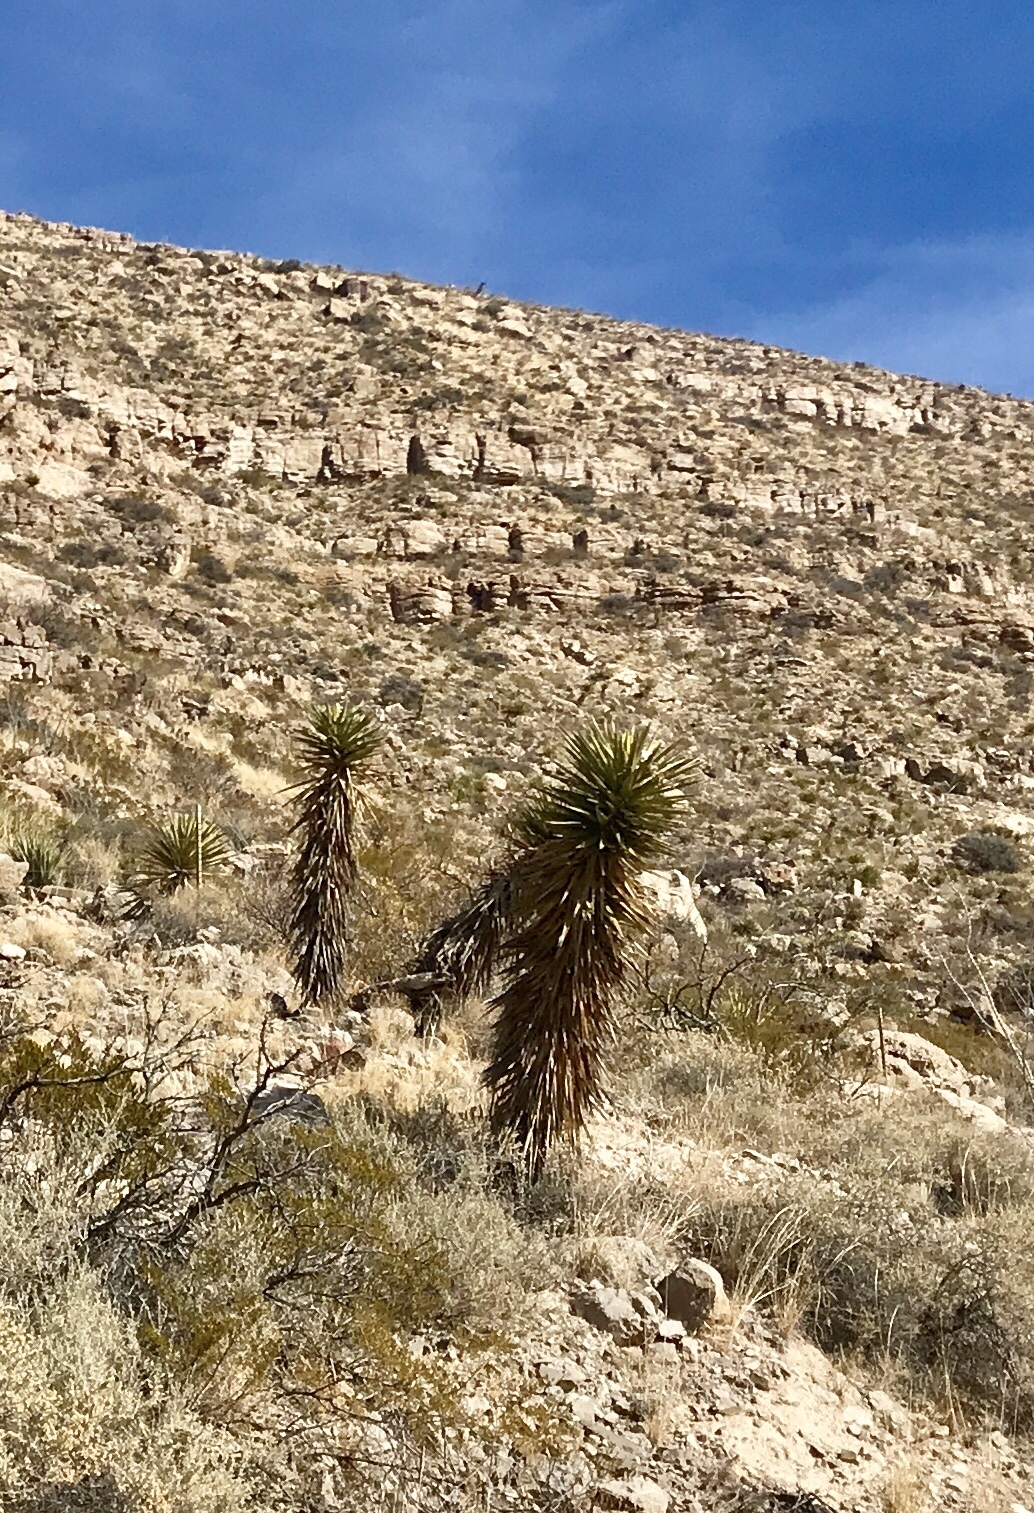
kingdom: Plantae
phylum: Tracheophyta
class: Liliopsida
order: Asparagales
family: Asparagaceae
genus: Yucca
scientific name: Yucca treculiana
